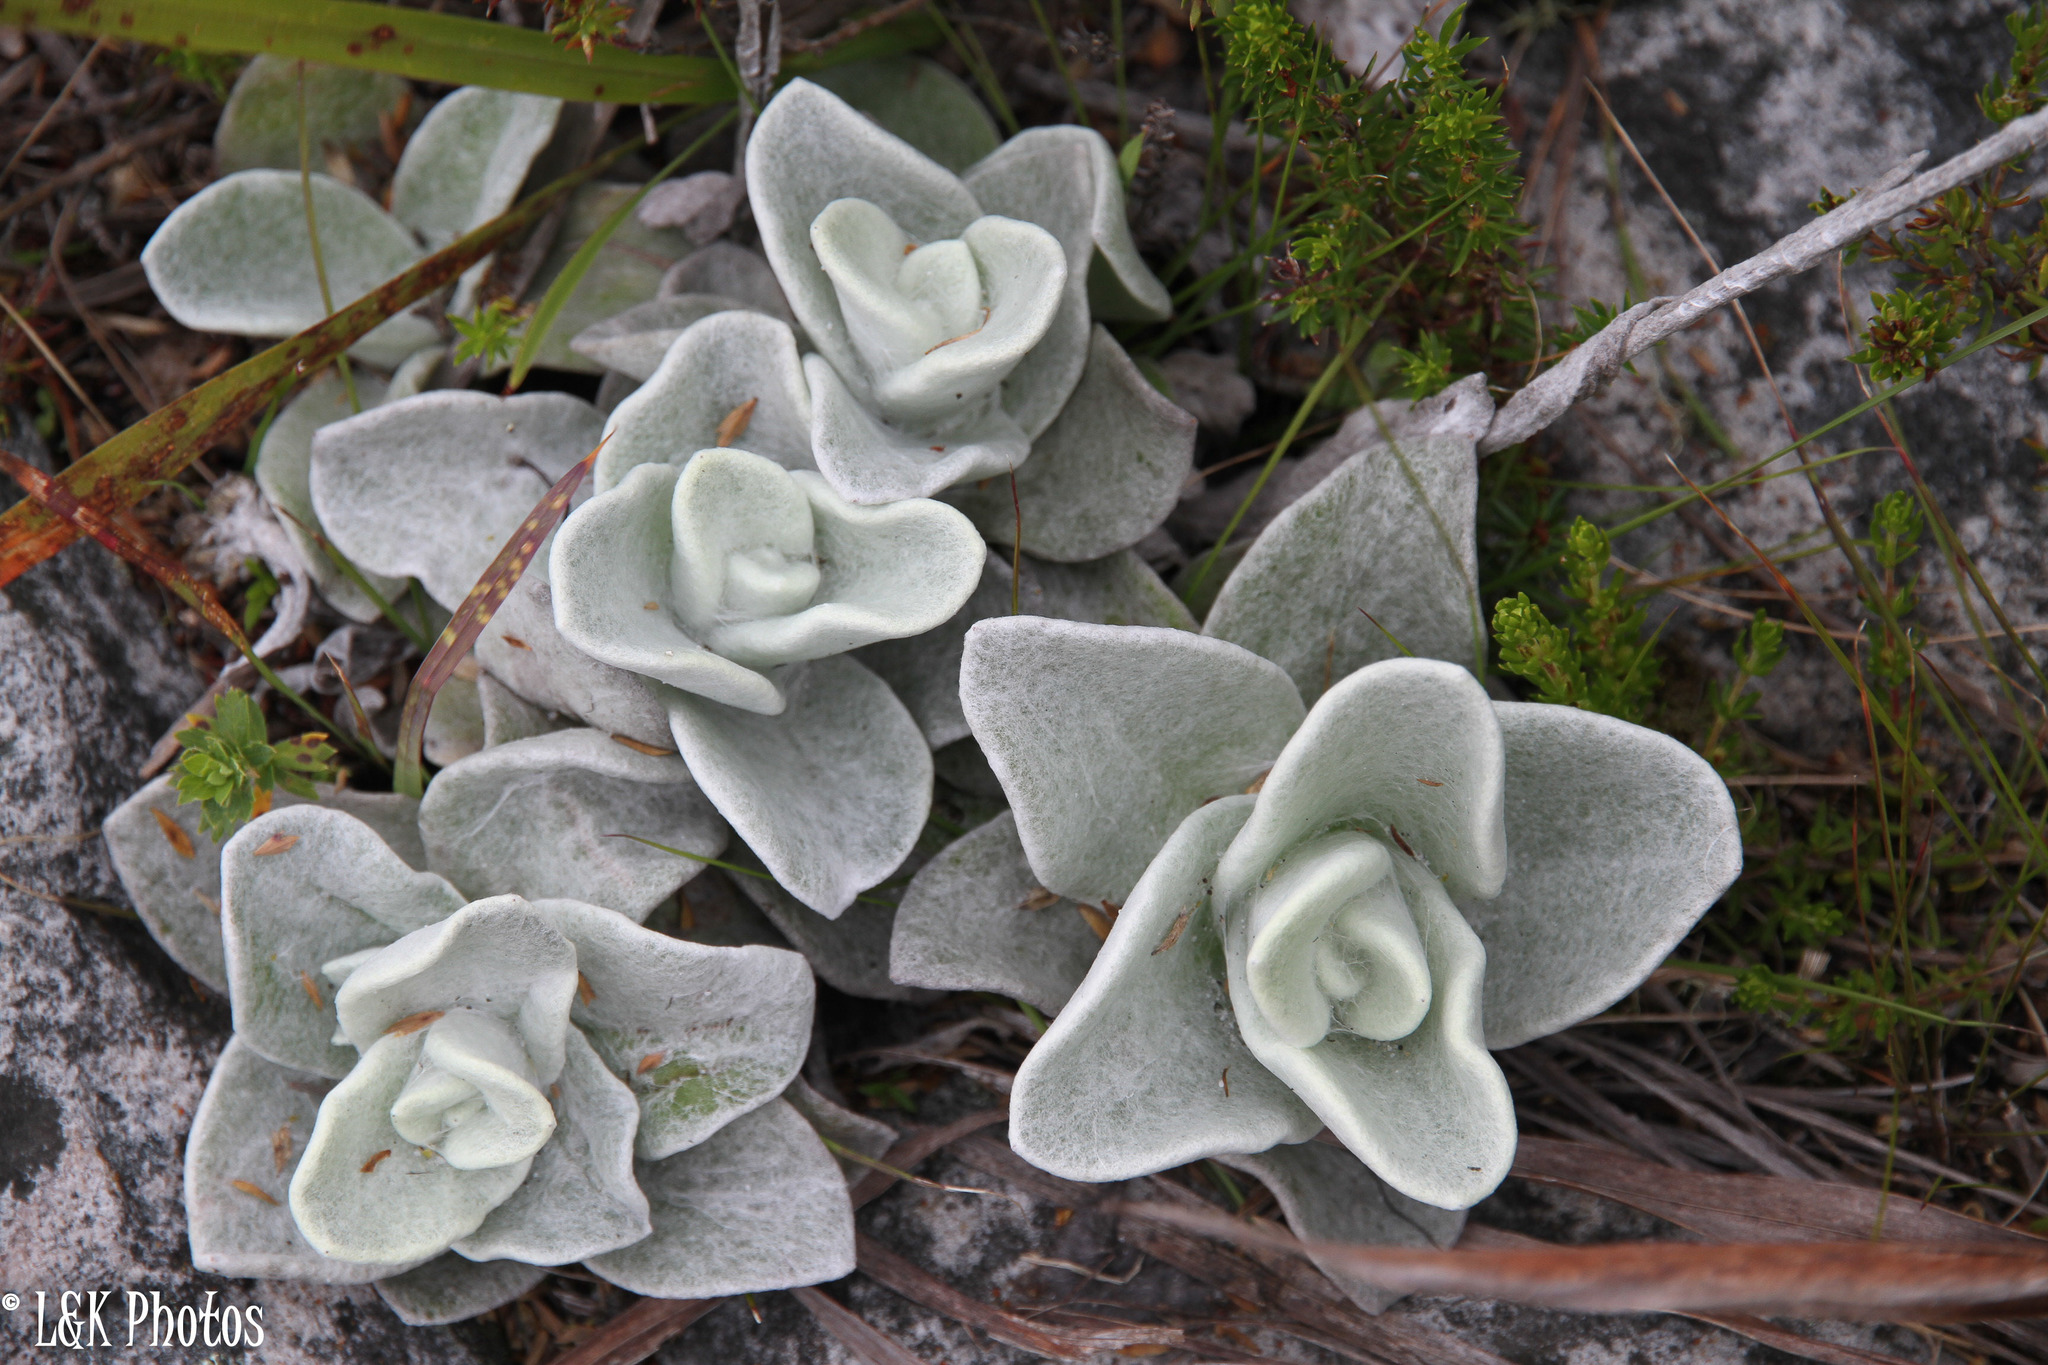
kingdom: Plantae
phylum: Tracheophyta
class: Magnoliopsida
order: Asterales
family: Asteraceae
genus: Helichrysum
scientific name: Helichrysum grandiflorum
